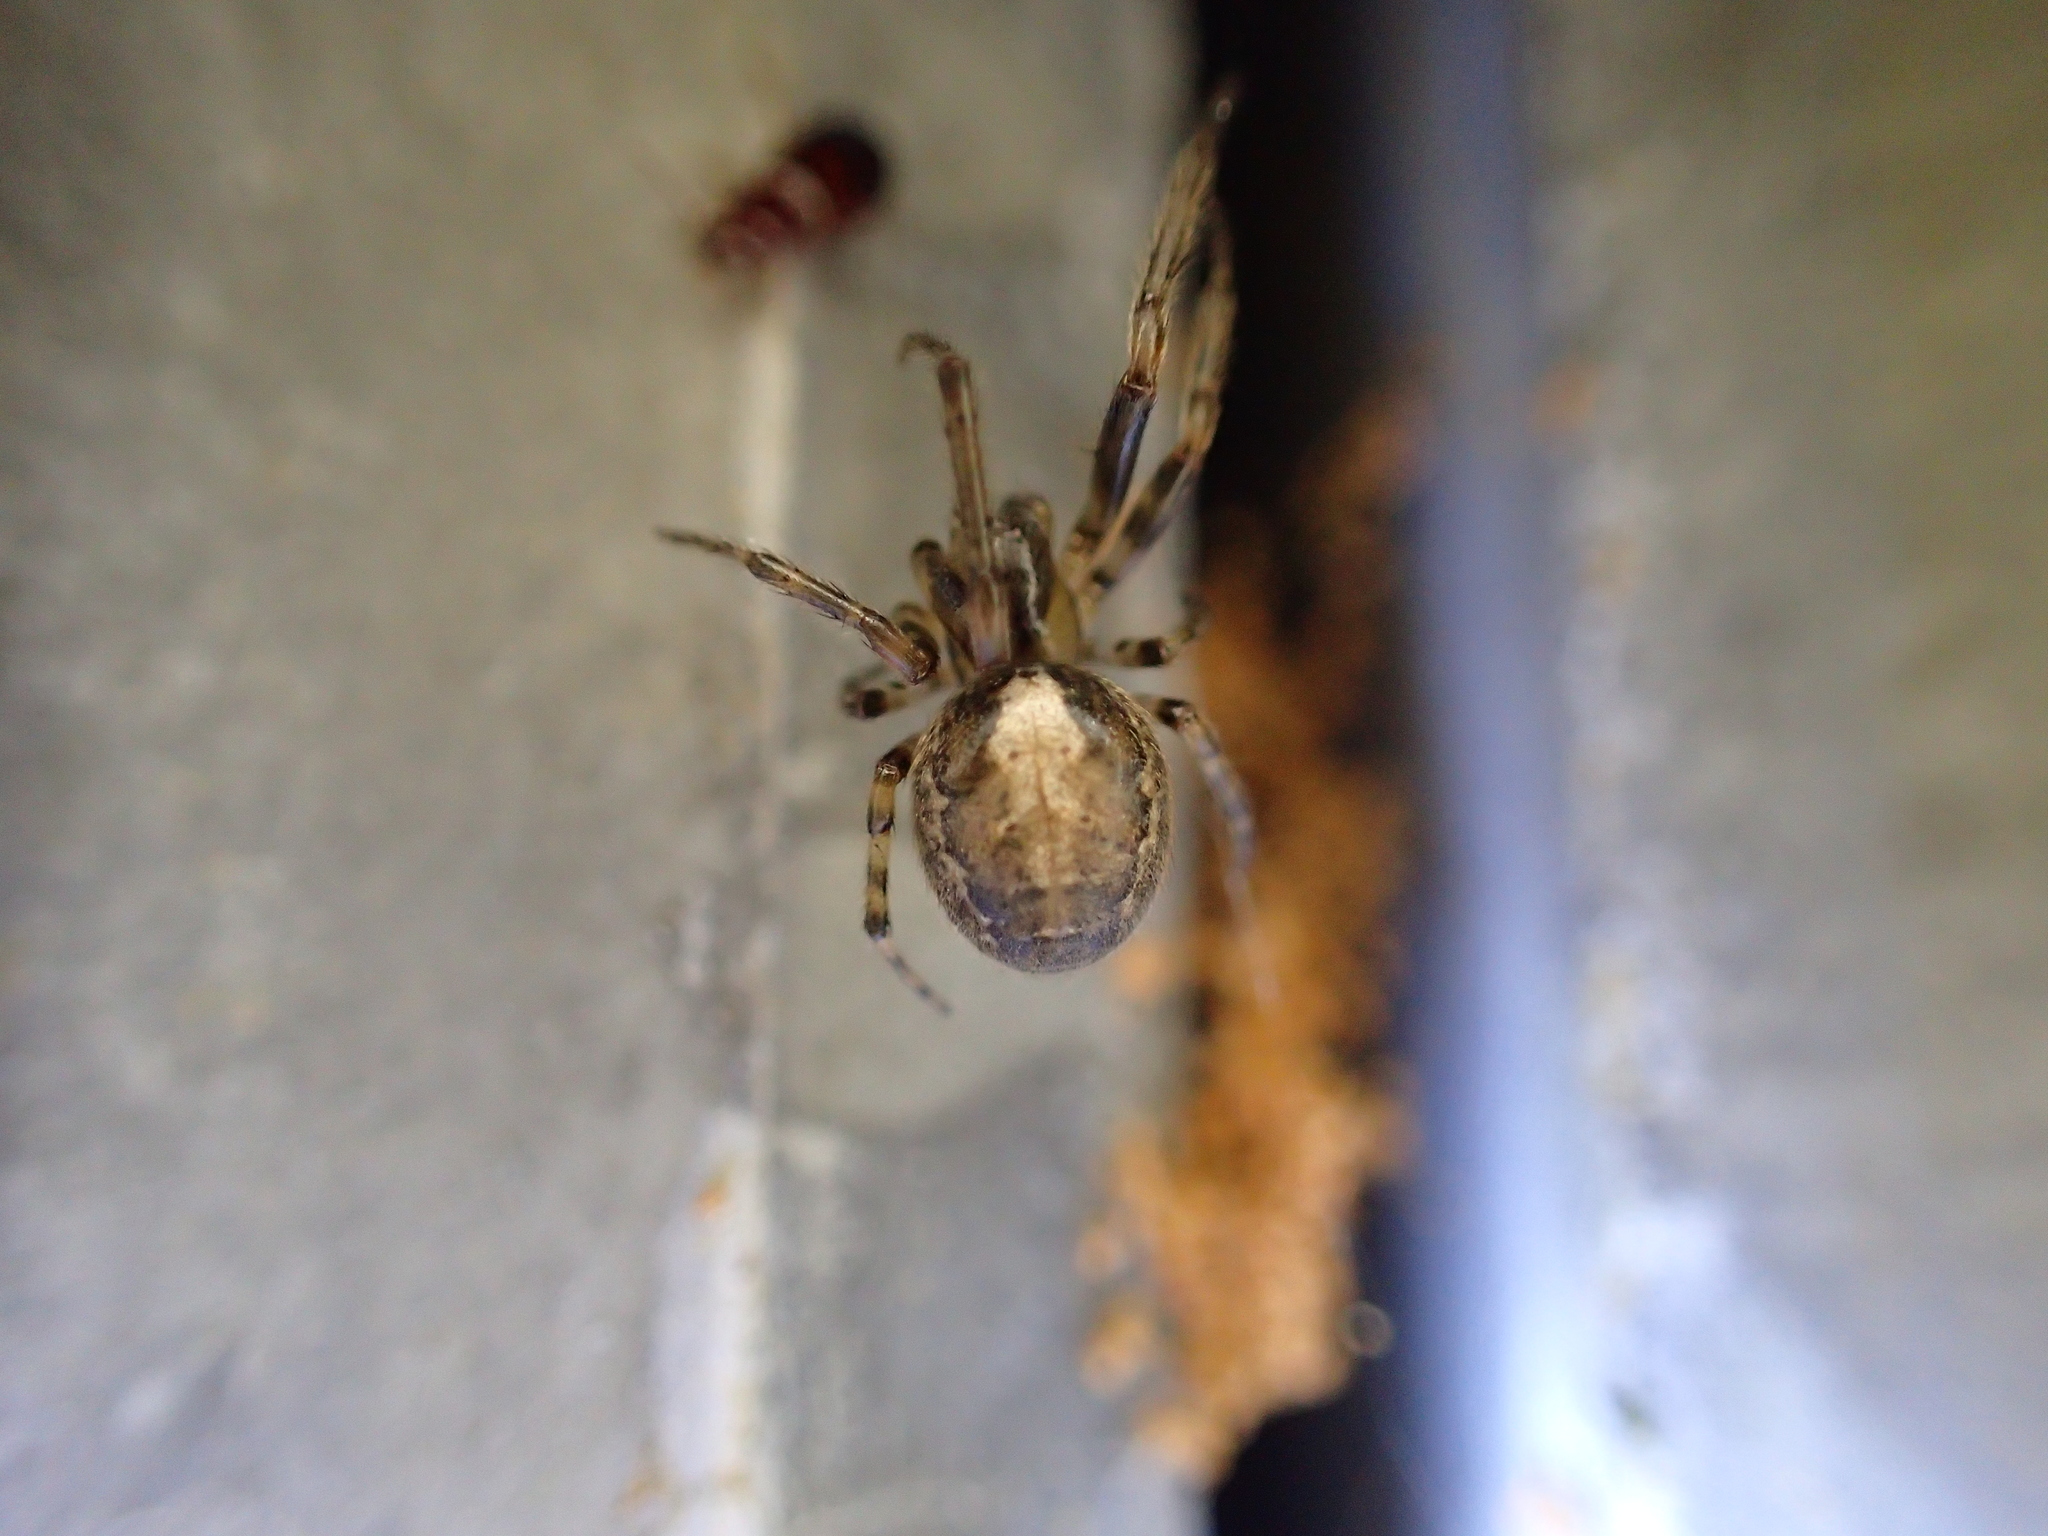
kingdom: Animalia
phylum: Arthropoda
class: Arachnida
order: Araneae
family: Araneidae
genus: Zygiella
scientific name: Zygiella x-notata
